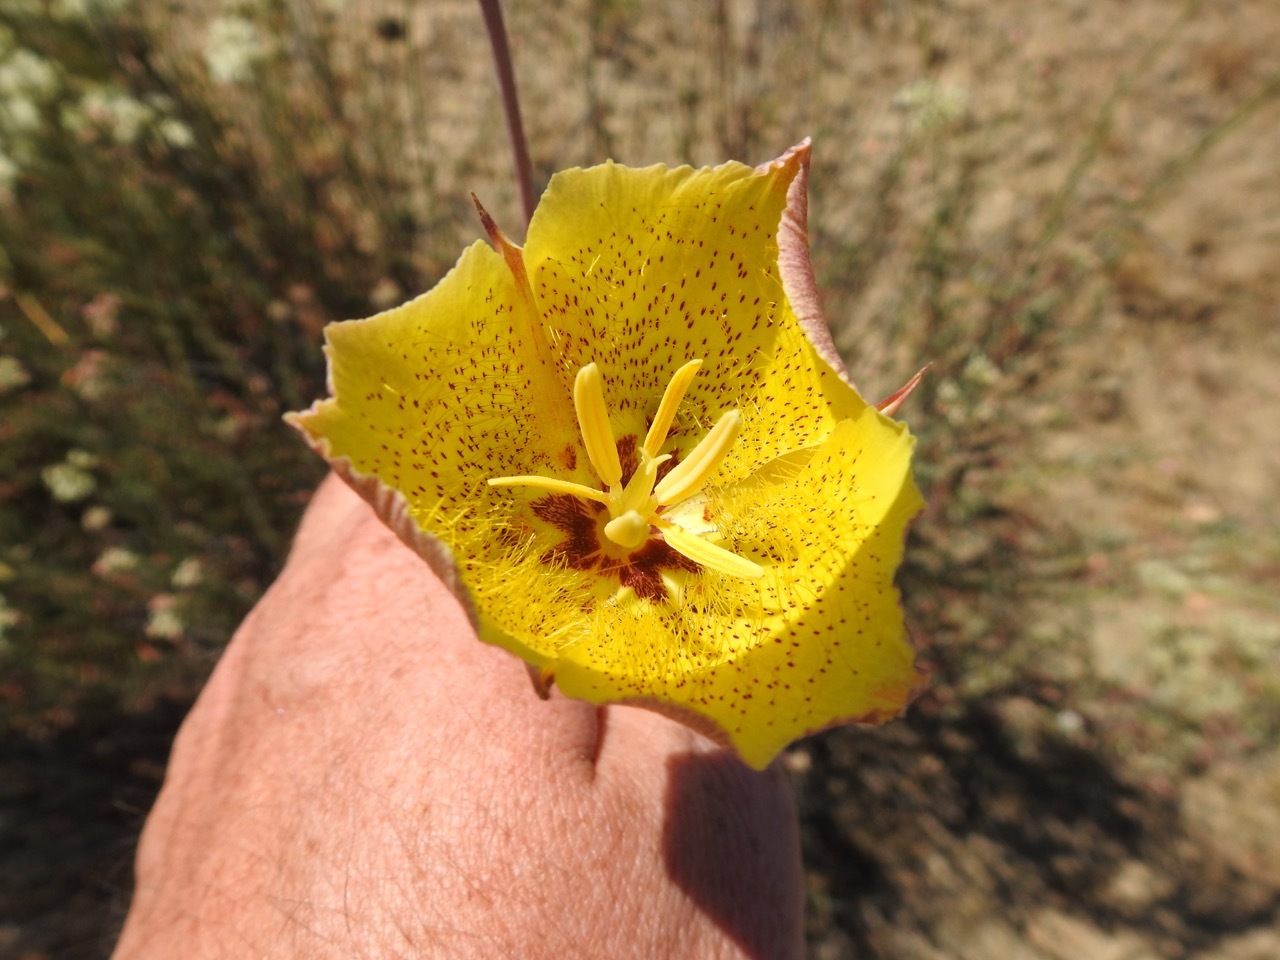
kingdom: Plantae
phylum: Tracheophyta
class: Liliopsida
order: Liliales
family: Liliaceae
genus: Calochortus
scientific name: Calochortus weedii
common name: Weed's mariposa-lily
